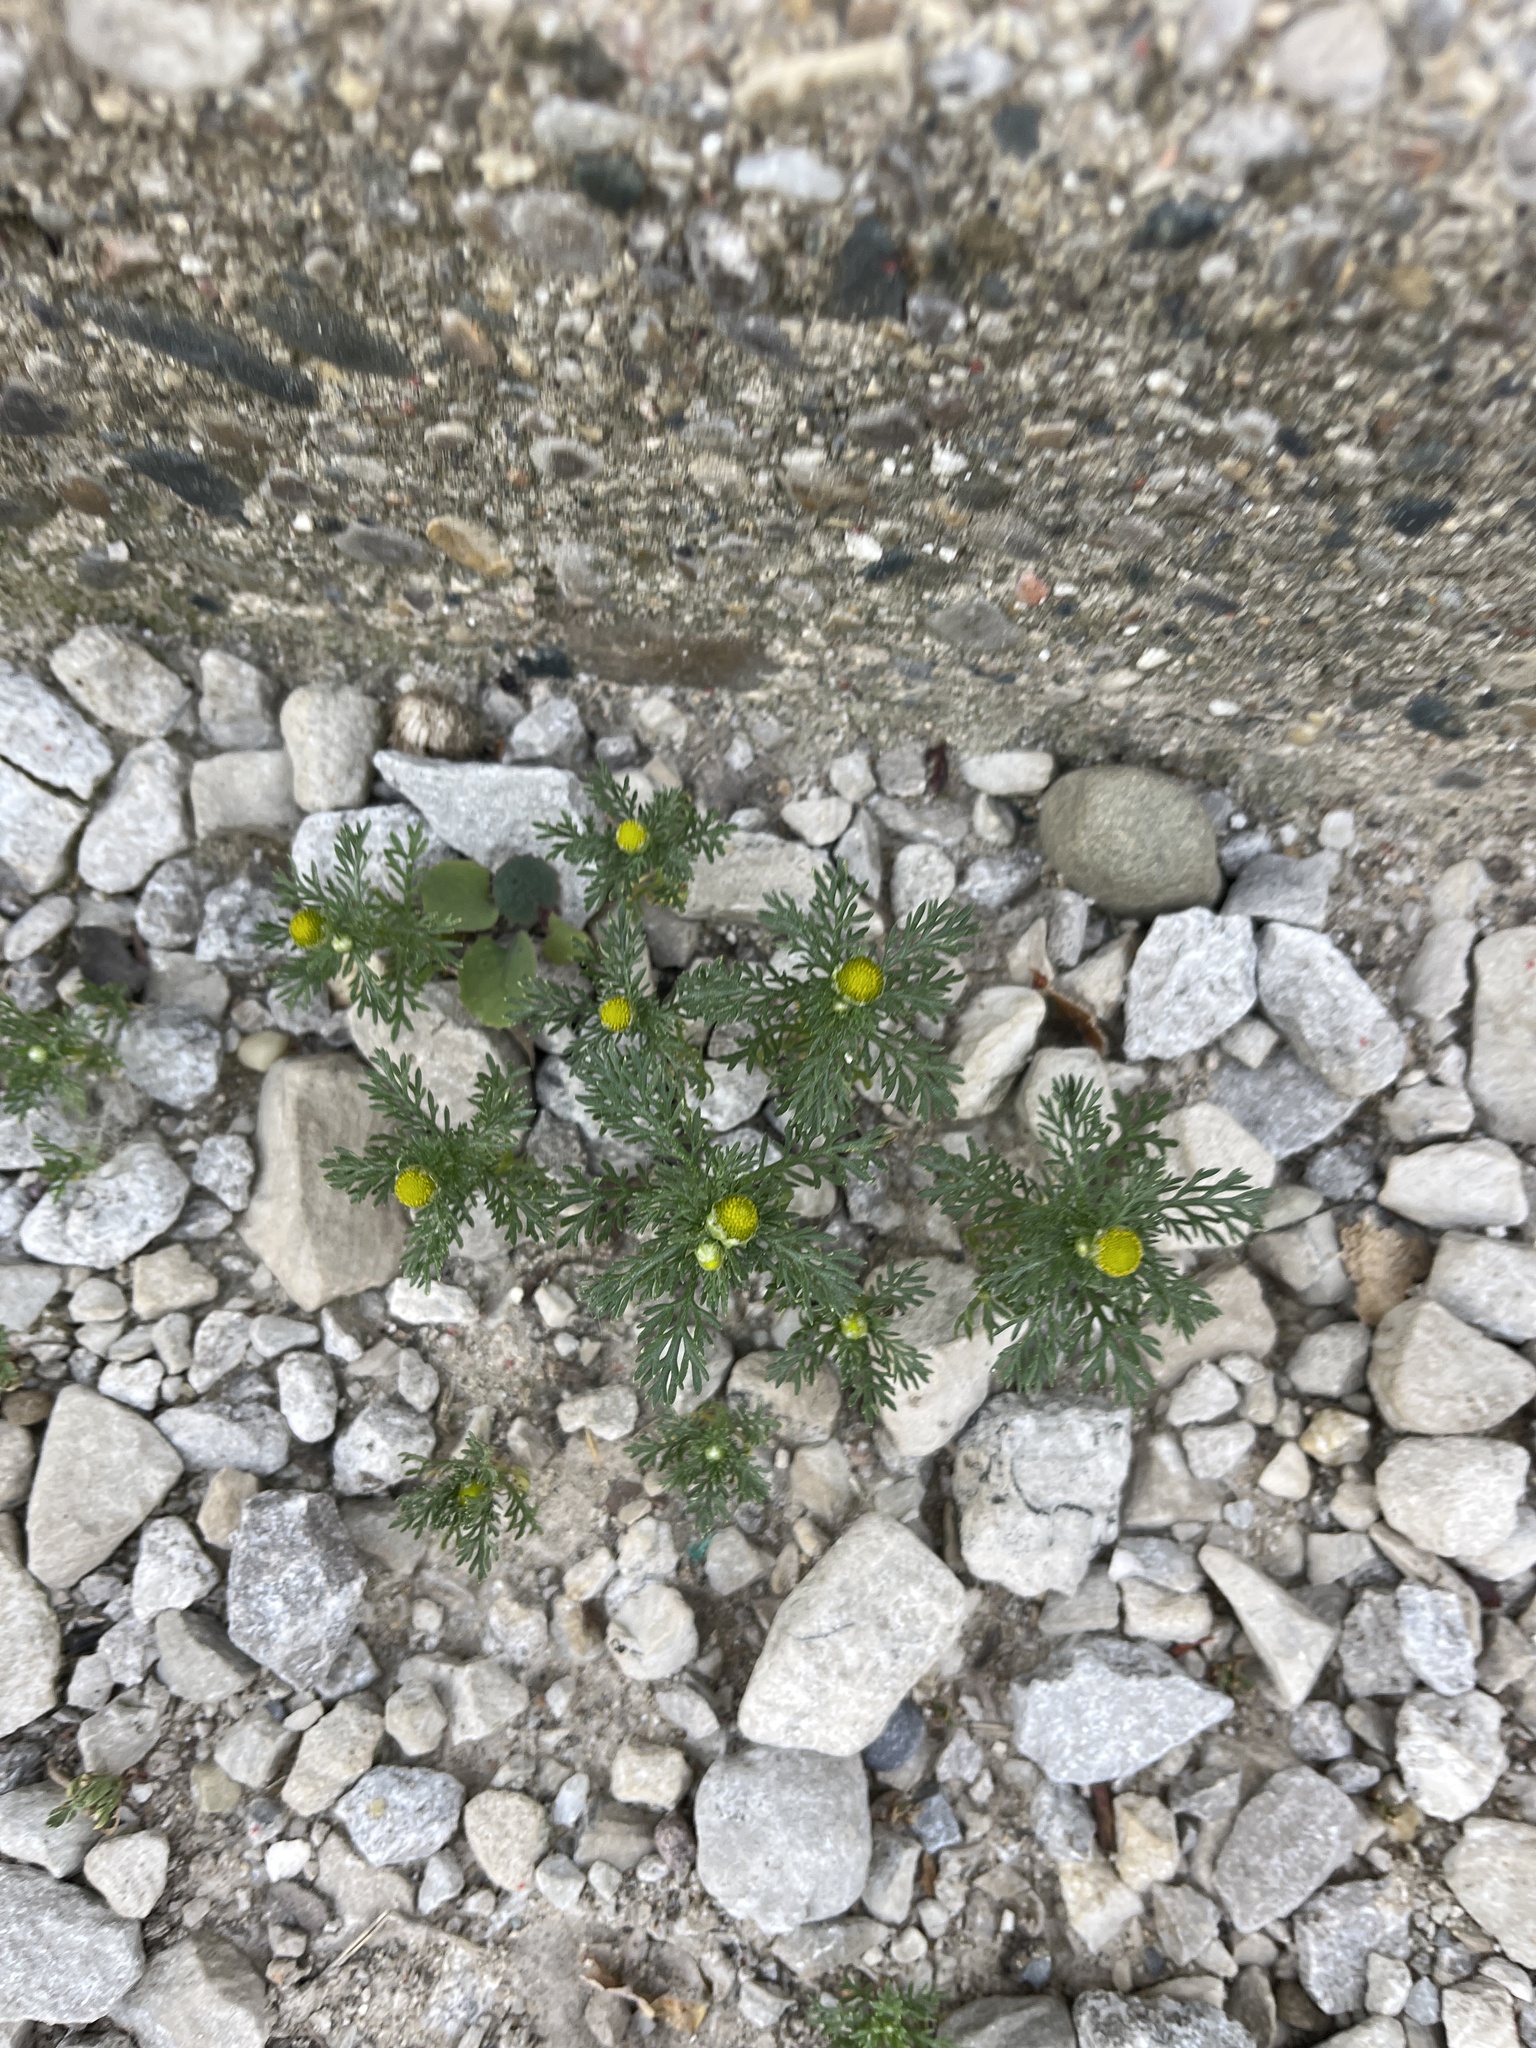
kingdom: Plantae
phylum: Tracheophyta
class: Magnoliopsida
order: Asterales
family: Asteraceae
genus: Matricaria
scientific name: Matricaria discoidea
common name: Disc mayweed
